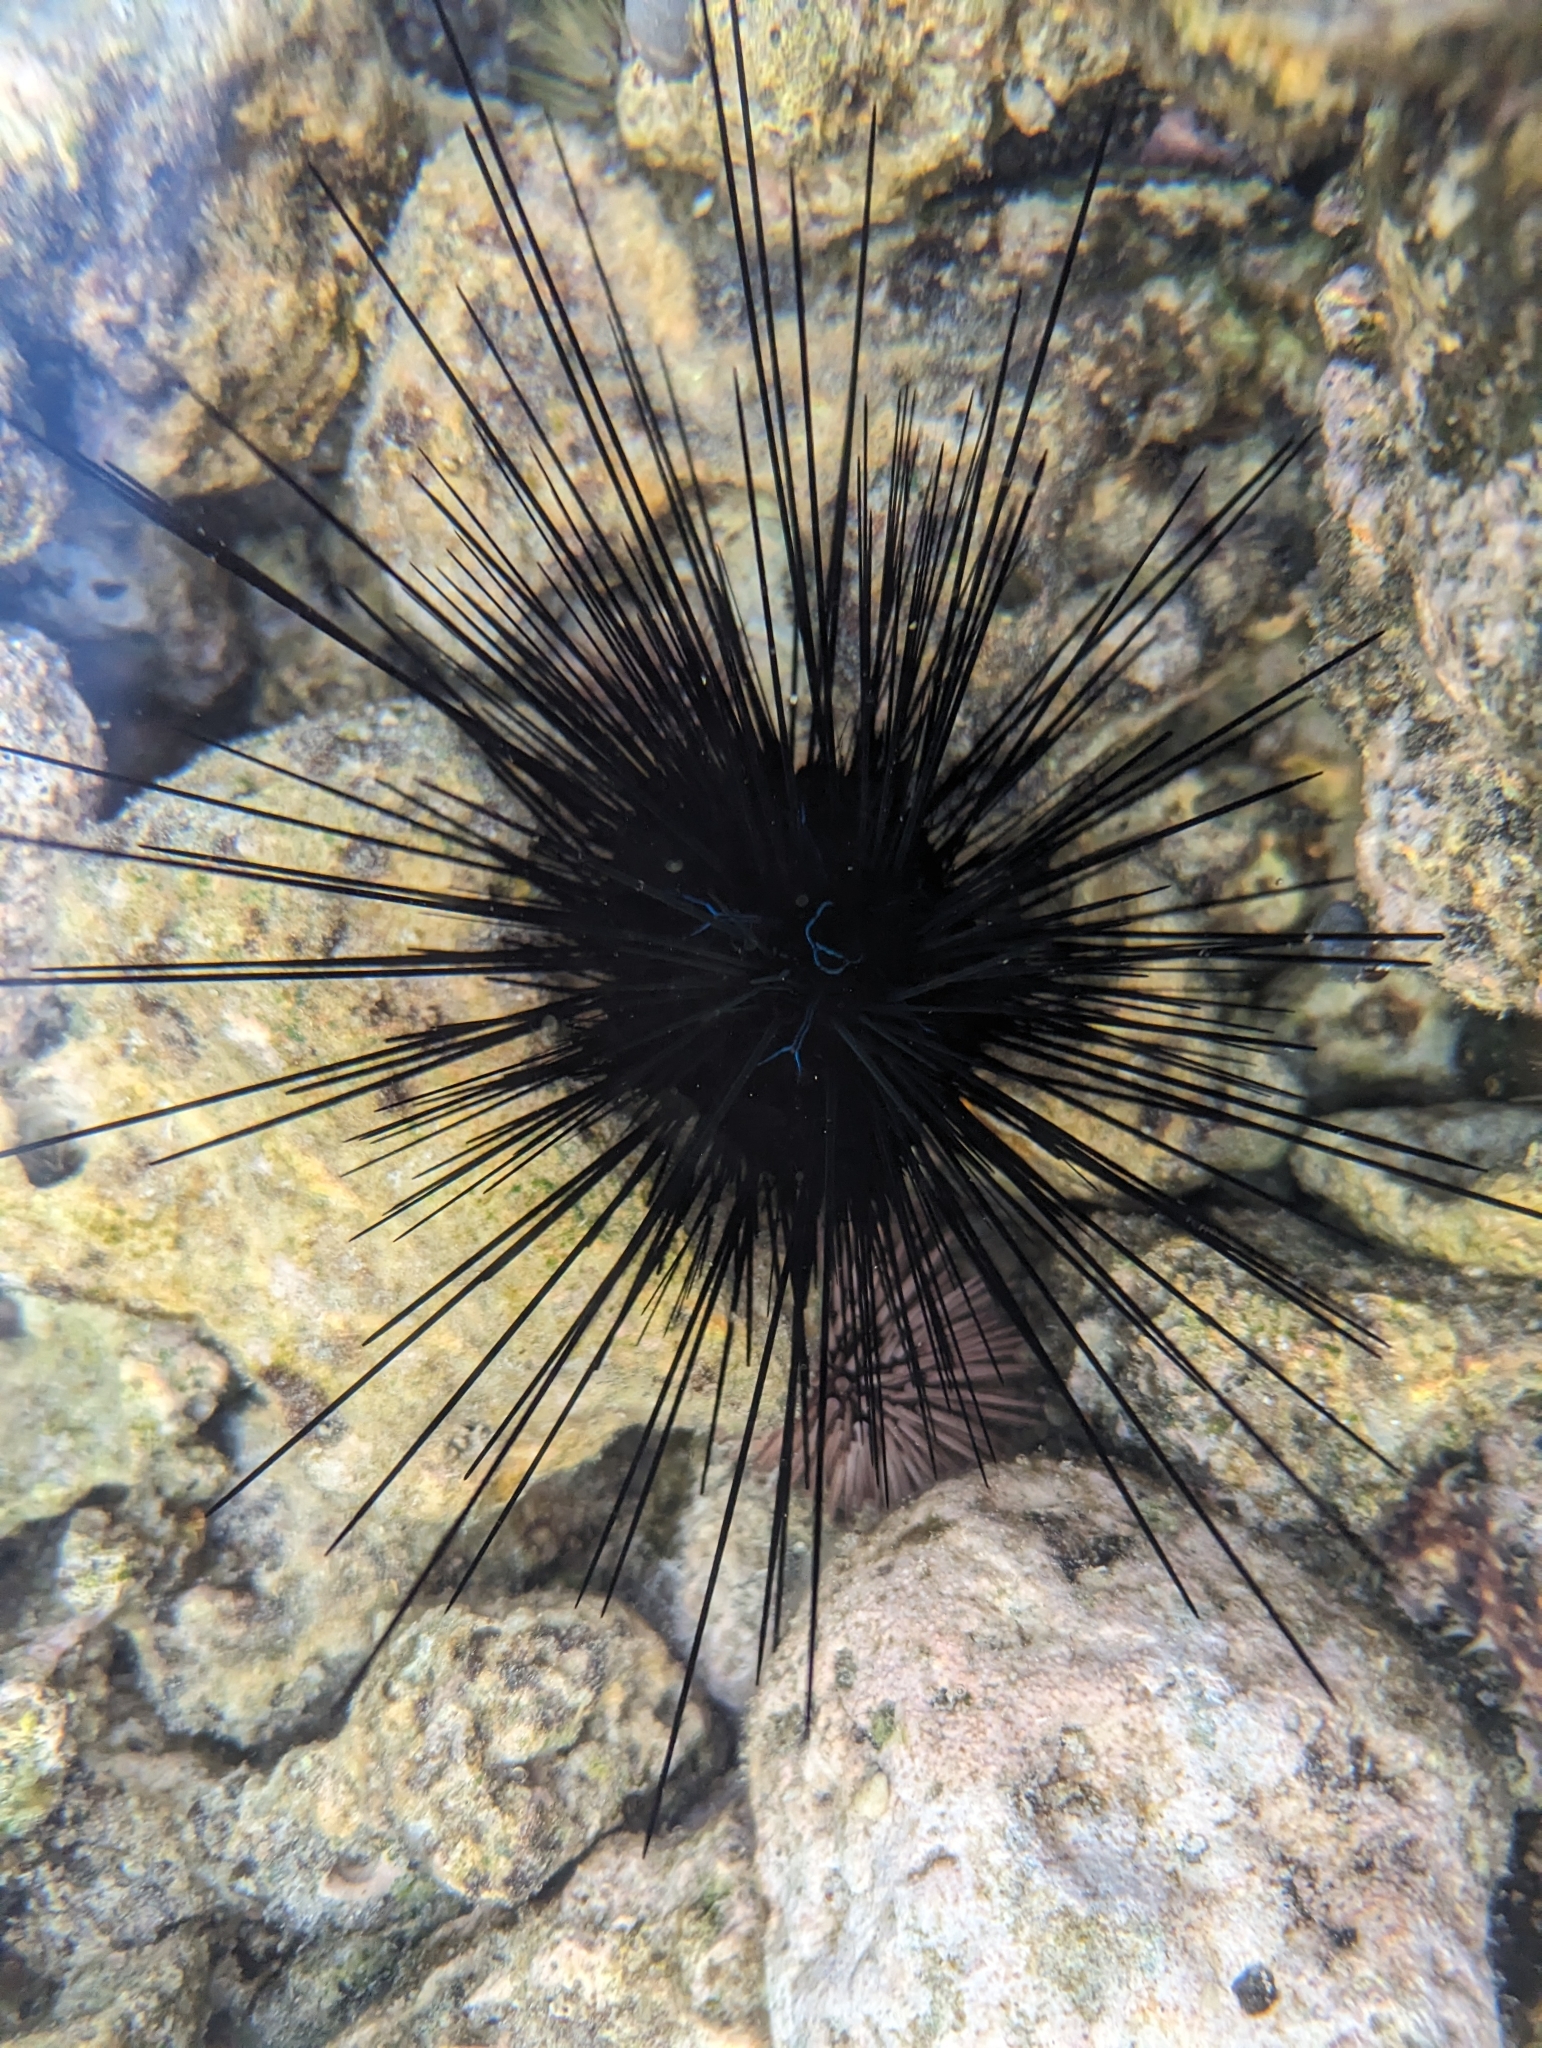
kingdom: Animalia
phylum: Echinodermata
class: Echinoidea
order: Diadematoida
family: Diadematidae
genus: Diadema
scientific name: Diadema savignyi
